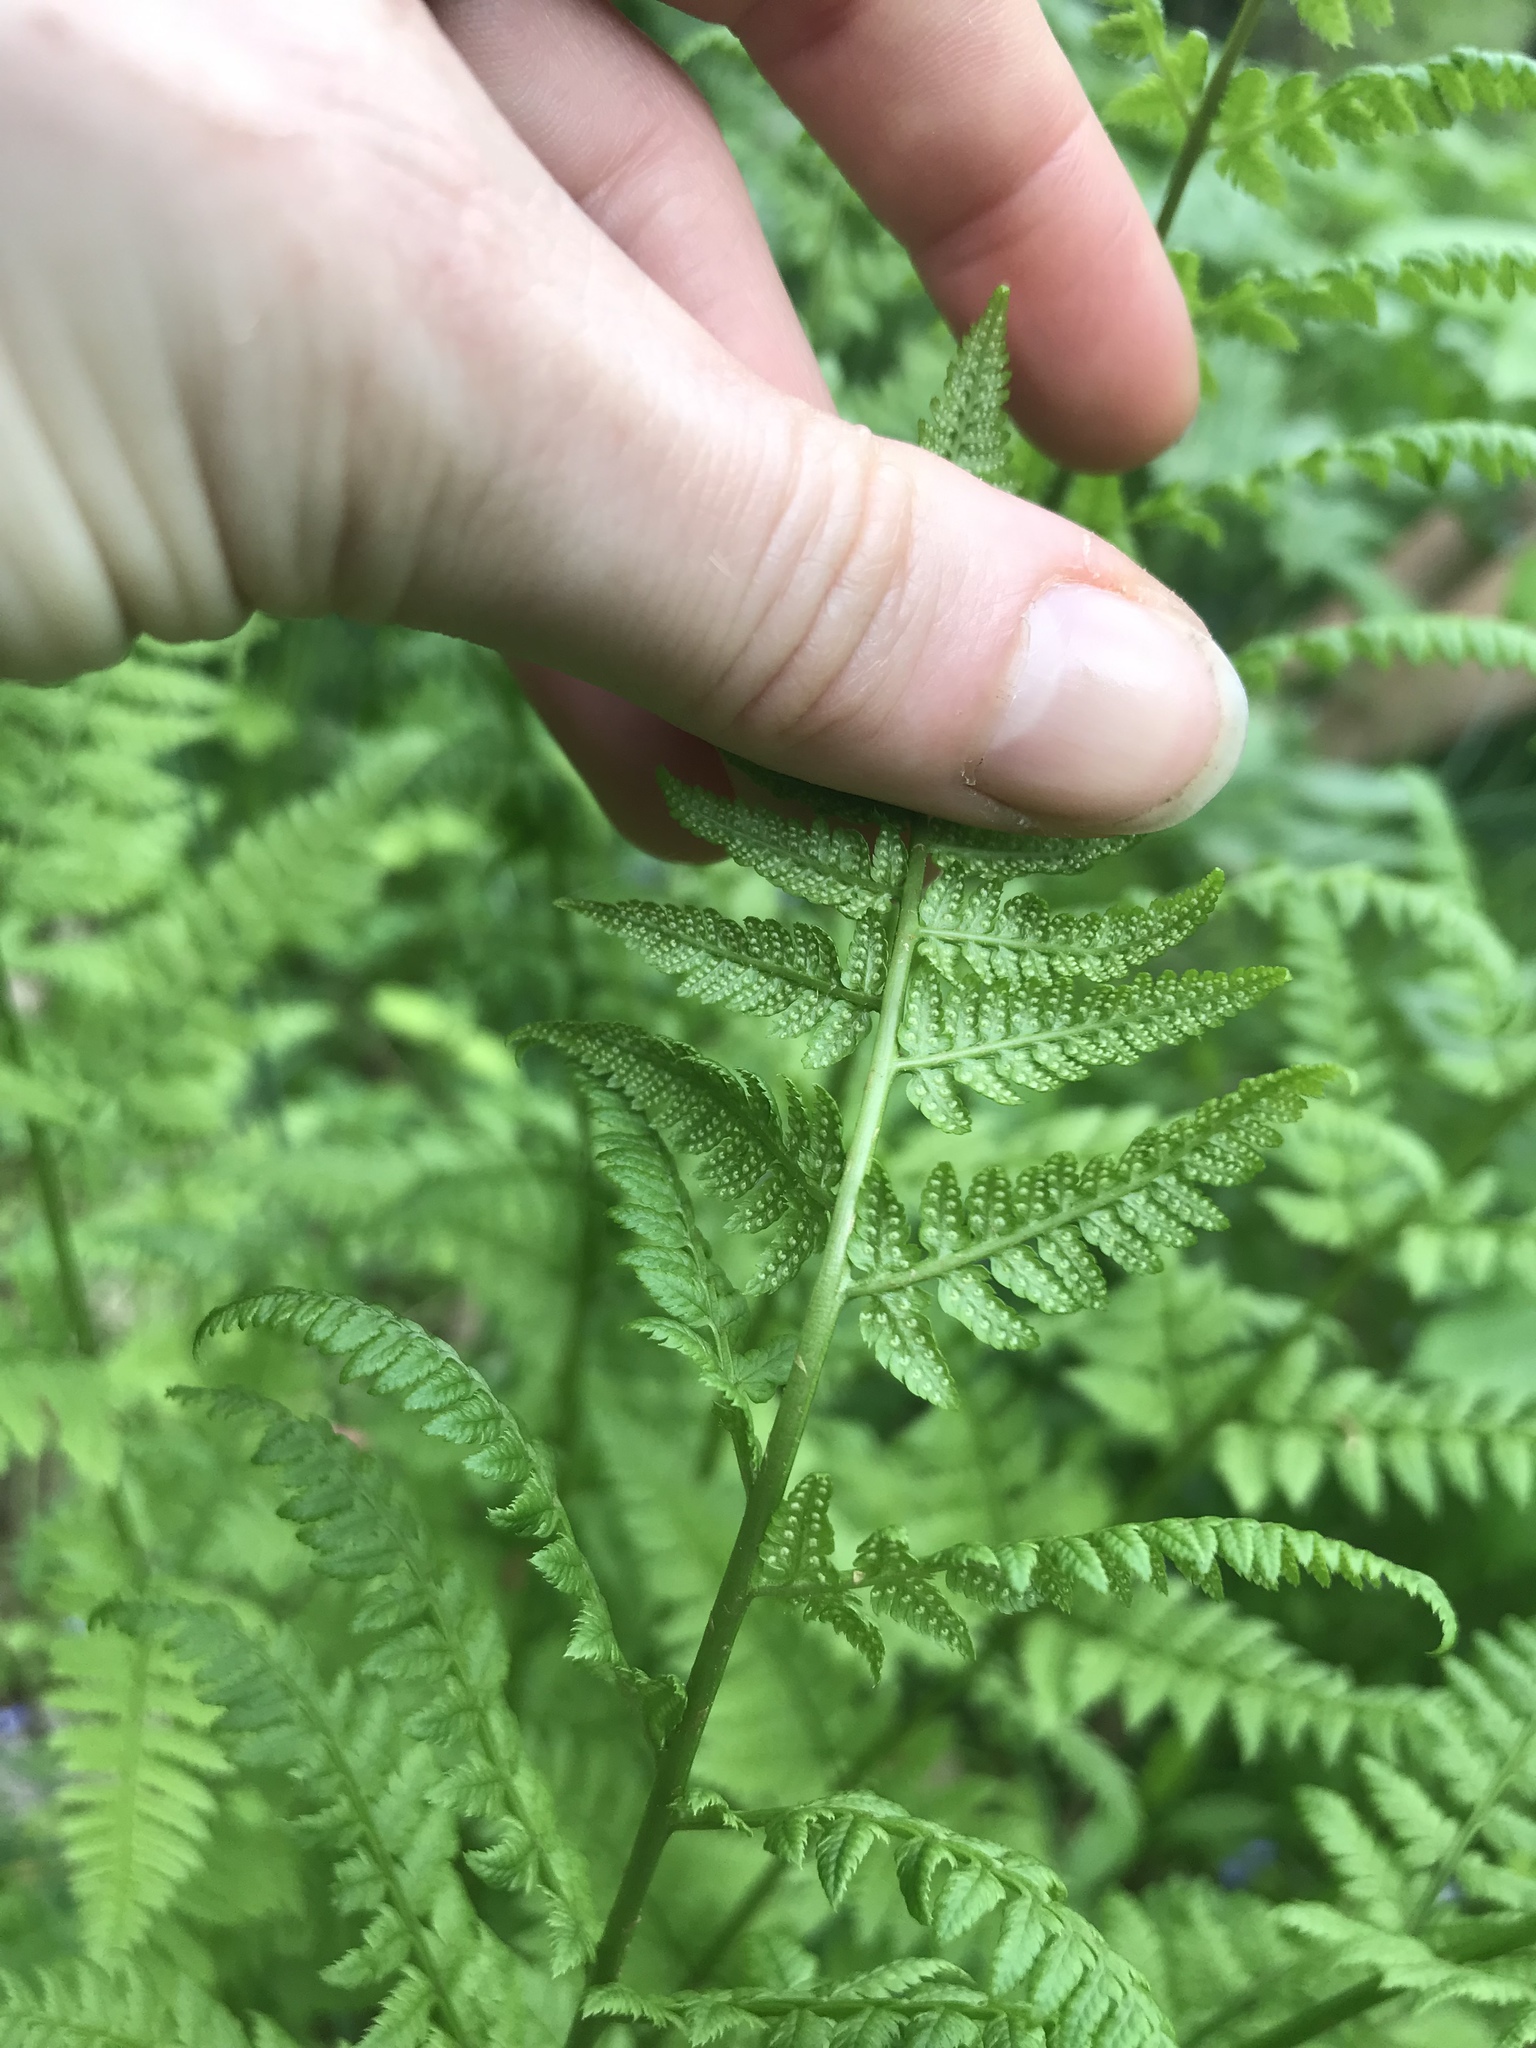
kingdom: Plantae
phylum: Tracheophyta
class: Polypodiopsida
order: Polypodiales
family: Dryopteridaceae
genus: Dryopteris
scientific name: Dryopteris carthusiana
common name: Narrow buckler-fern
